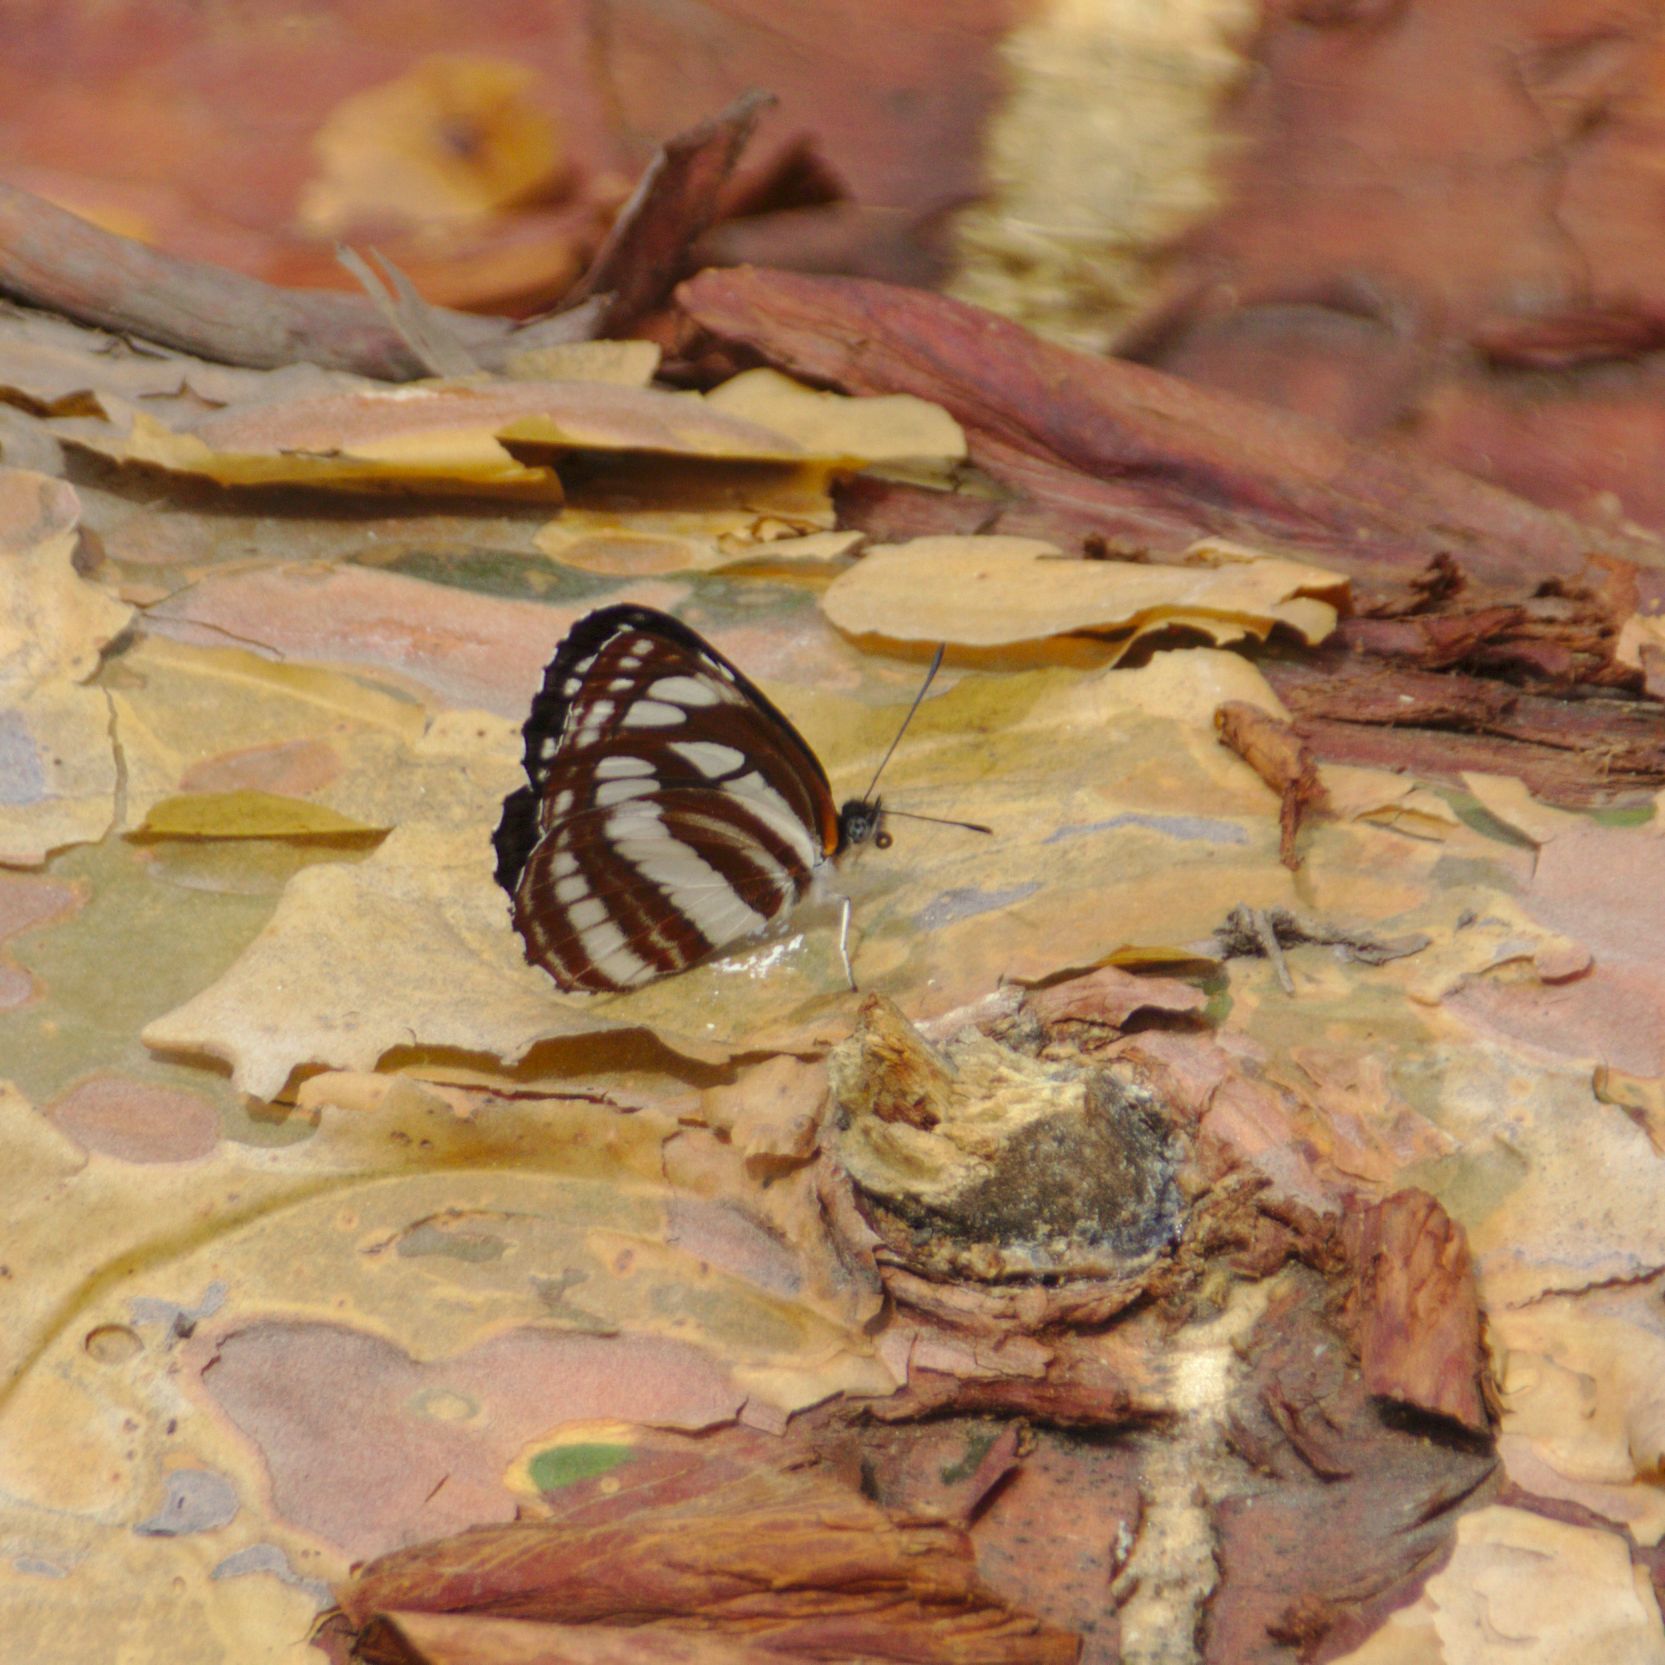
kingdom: Animalia
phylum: Arthropoda
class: Insecta
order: Lepidoptera
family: Nymphalidae
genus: Neptis
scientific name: Neptis sappho
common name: Common glider
